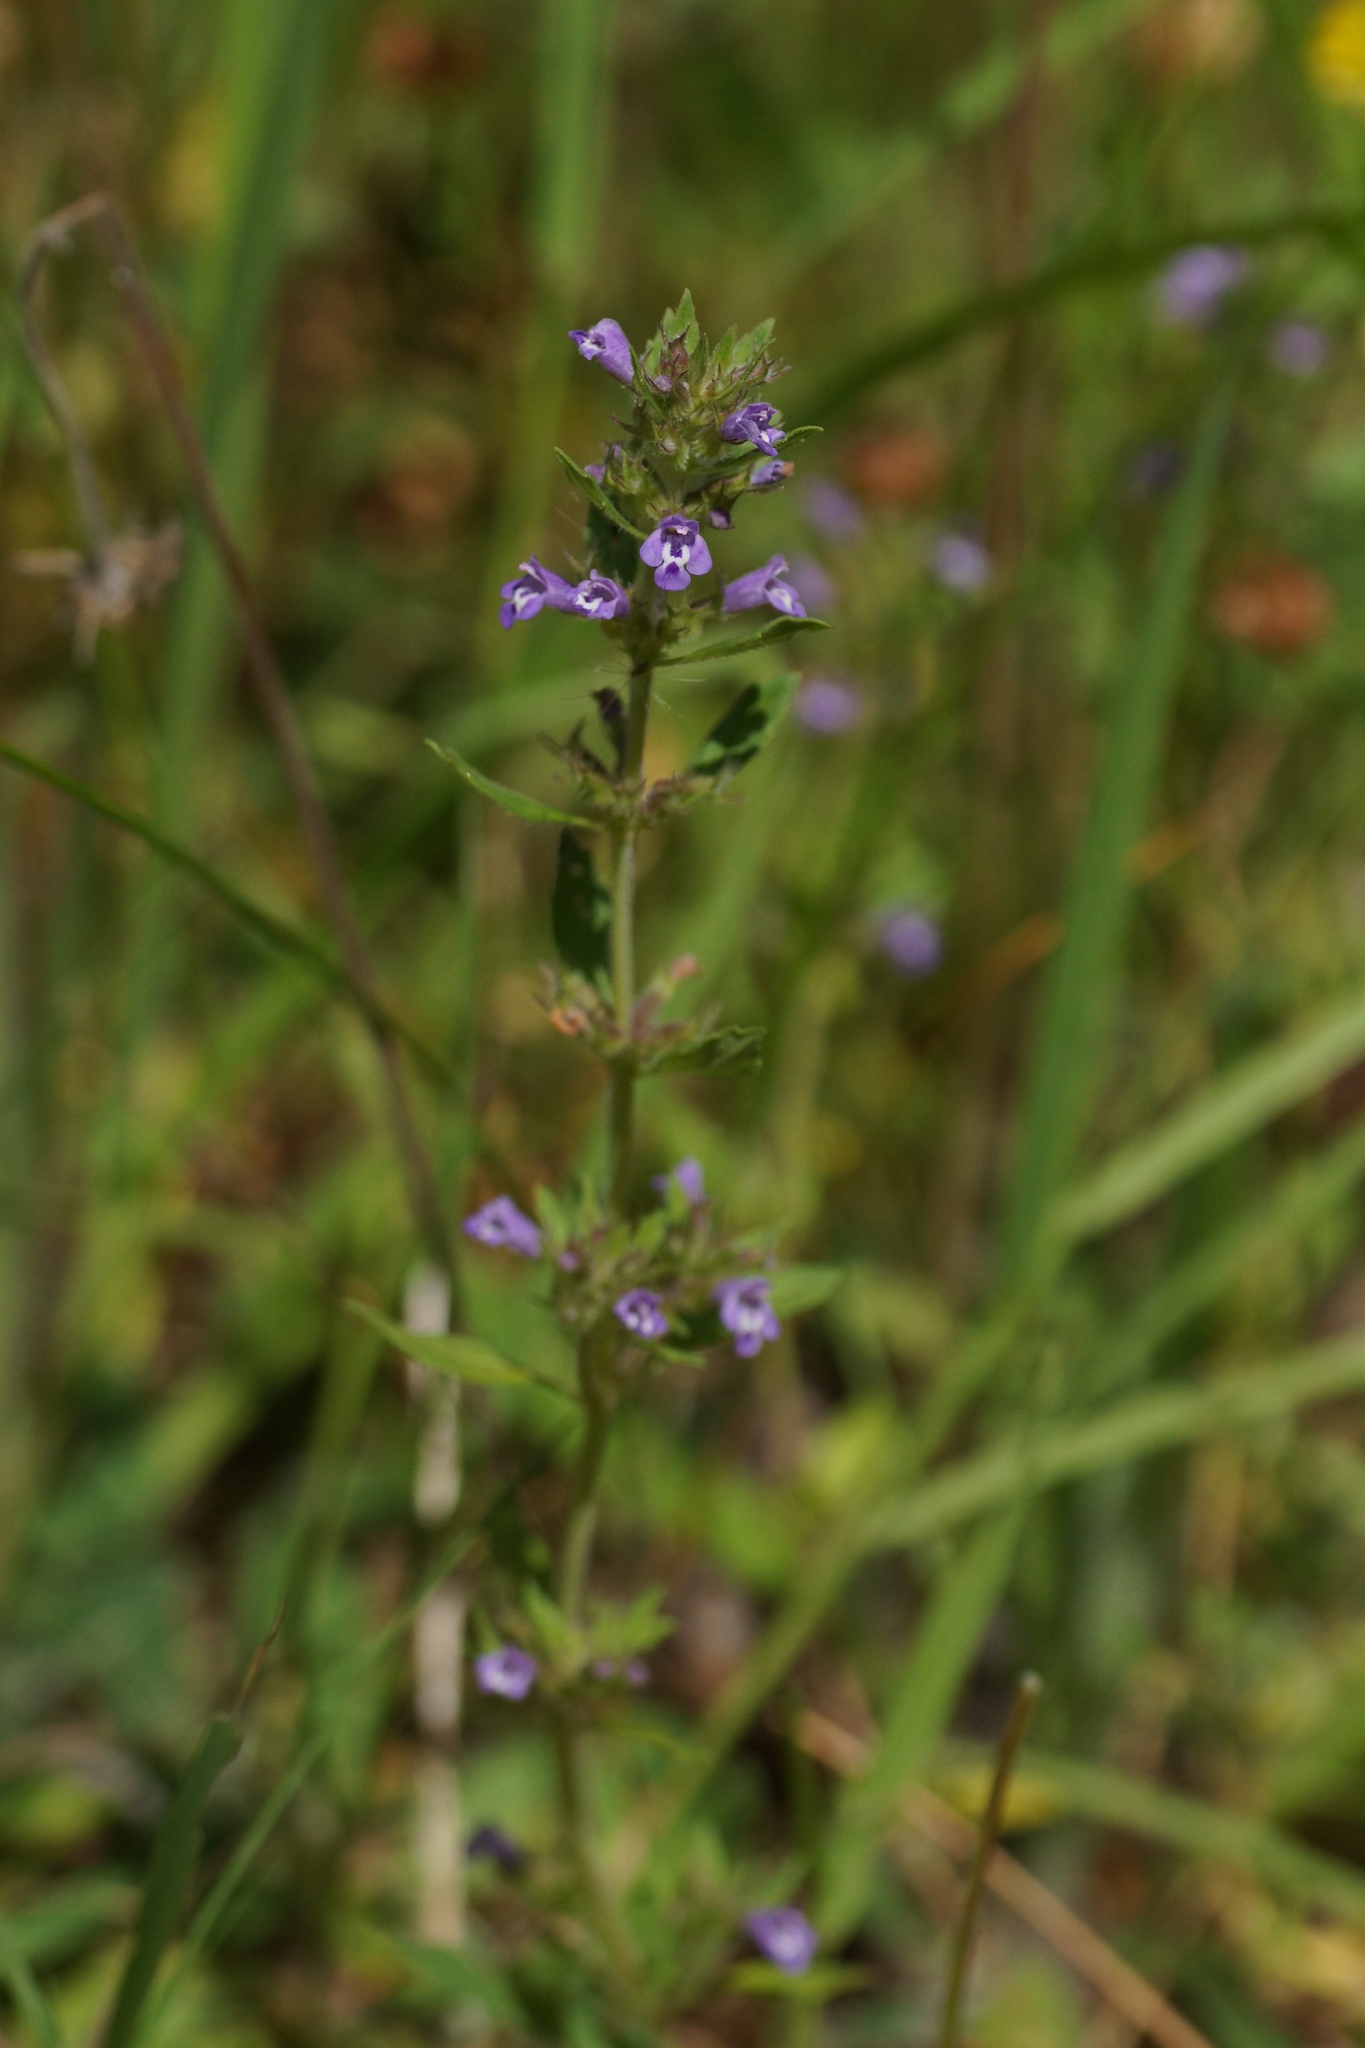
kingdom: Plantae
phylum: Tracheophyta
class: Magnoliopsida
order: Lamiales
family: Lamiaceae
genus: Clinopodium
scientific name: Clinopodium acinos
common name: Basil thyme
